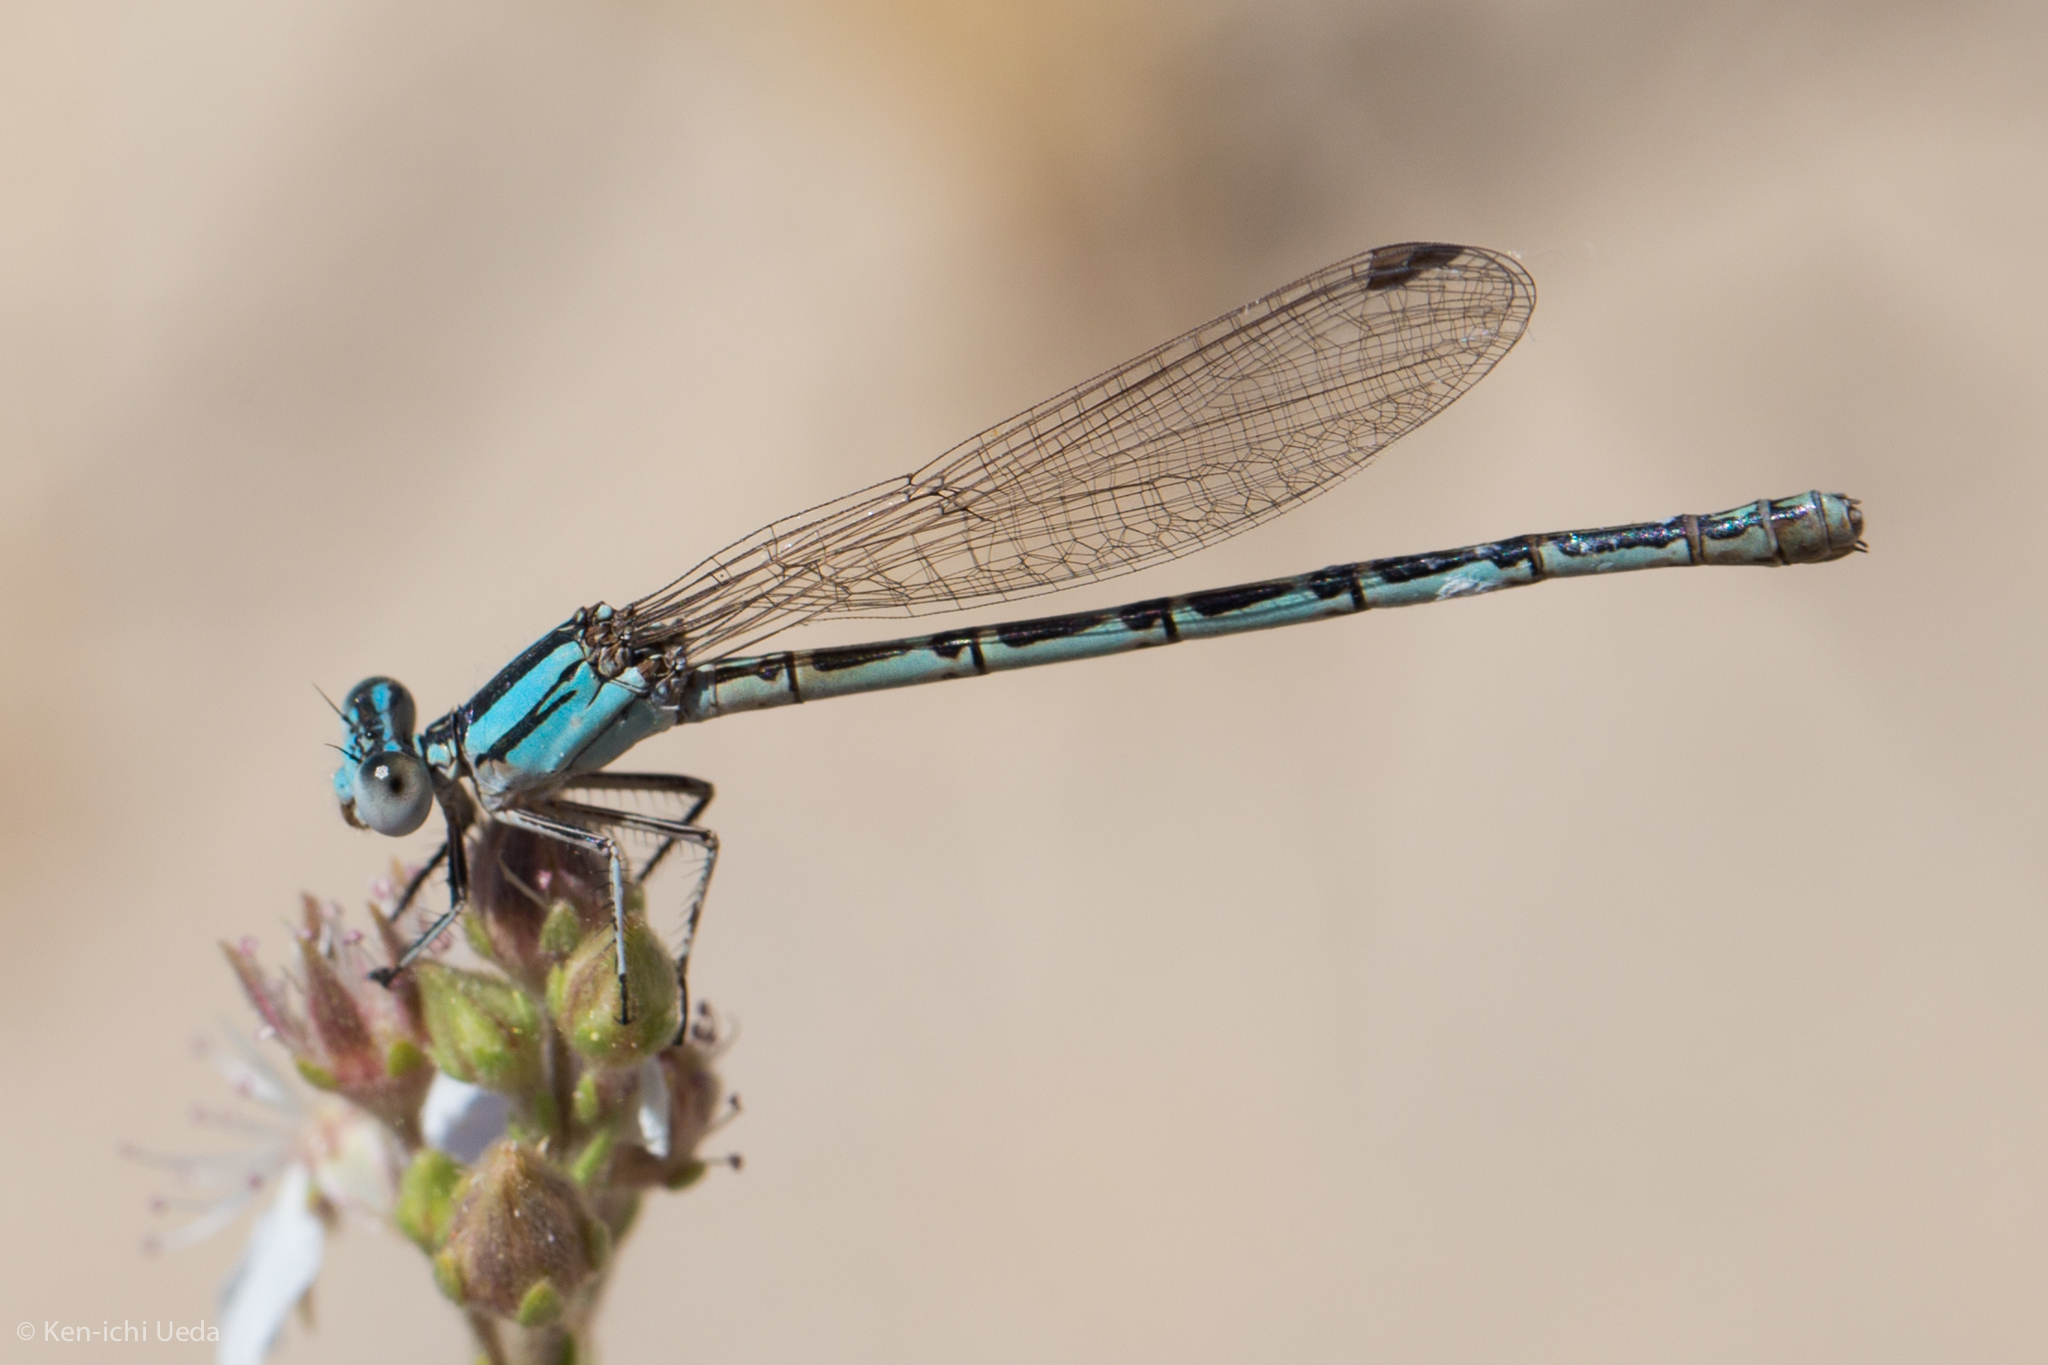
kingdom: Animalia
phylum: Arthropoda
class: Insecta
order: Odonata
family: Coenagrionidae
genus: Argia
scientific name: Argia alberta
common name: Paiute dancer
